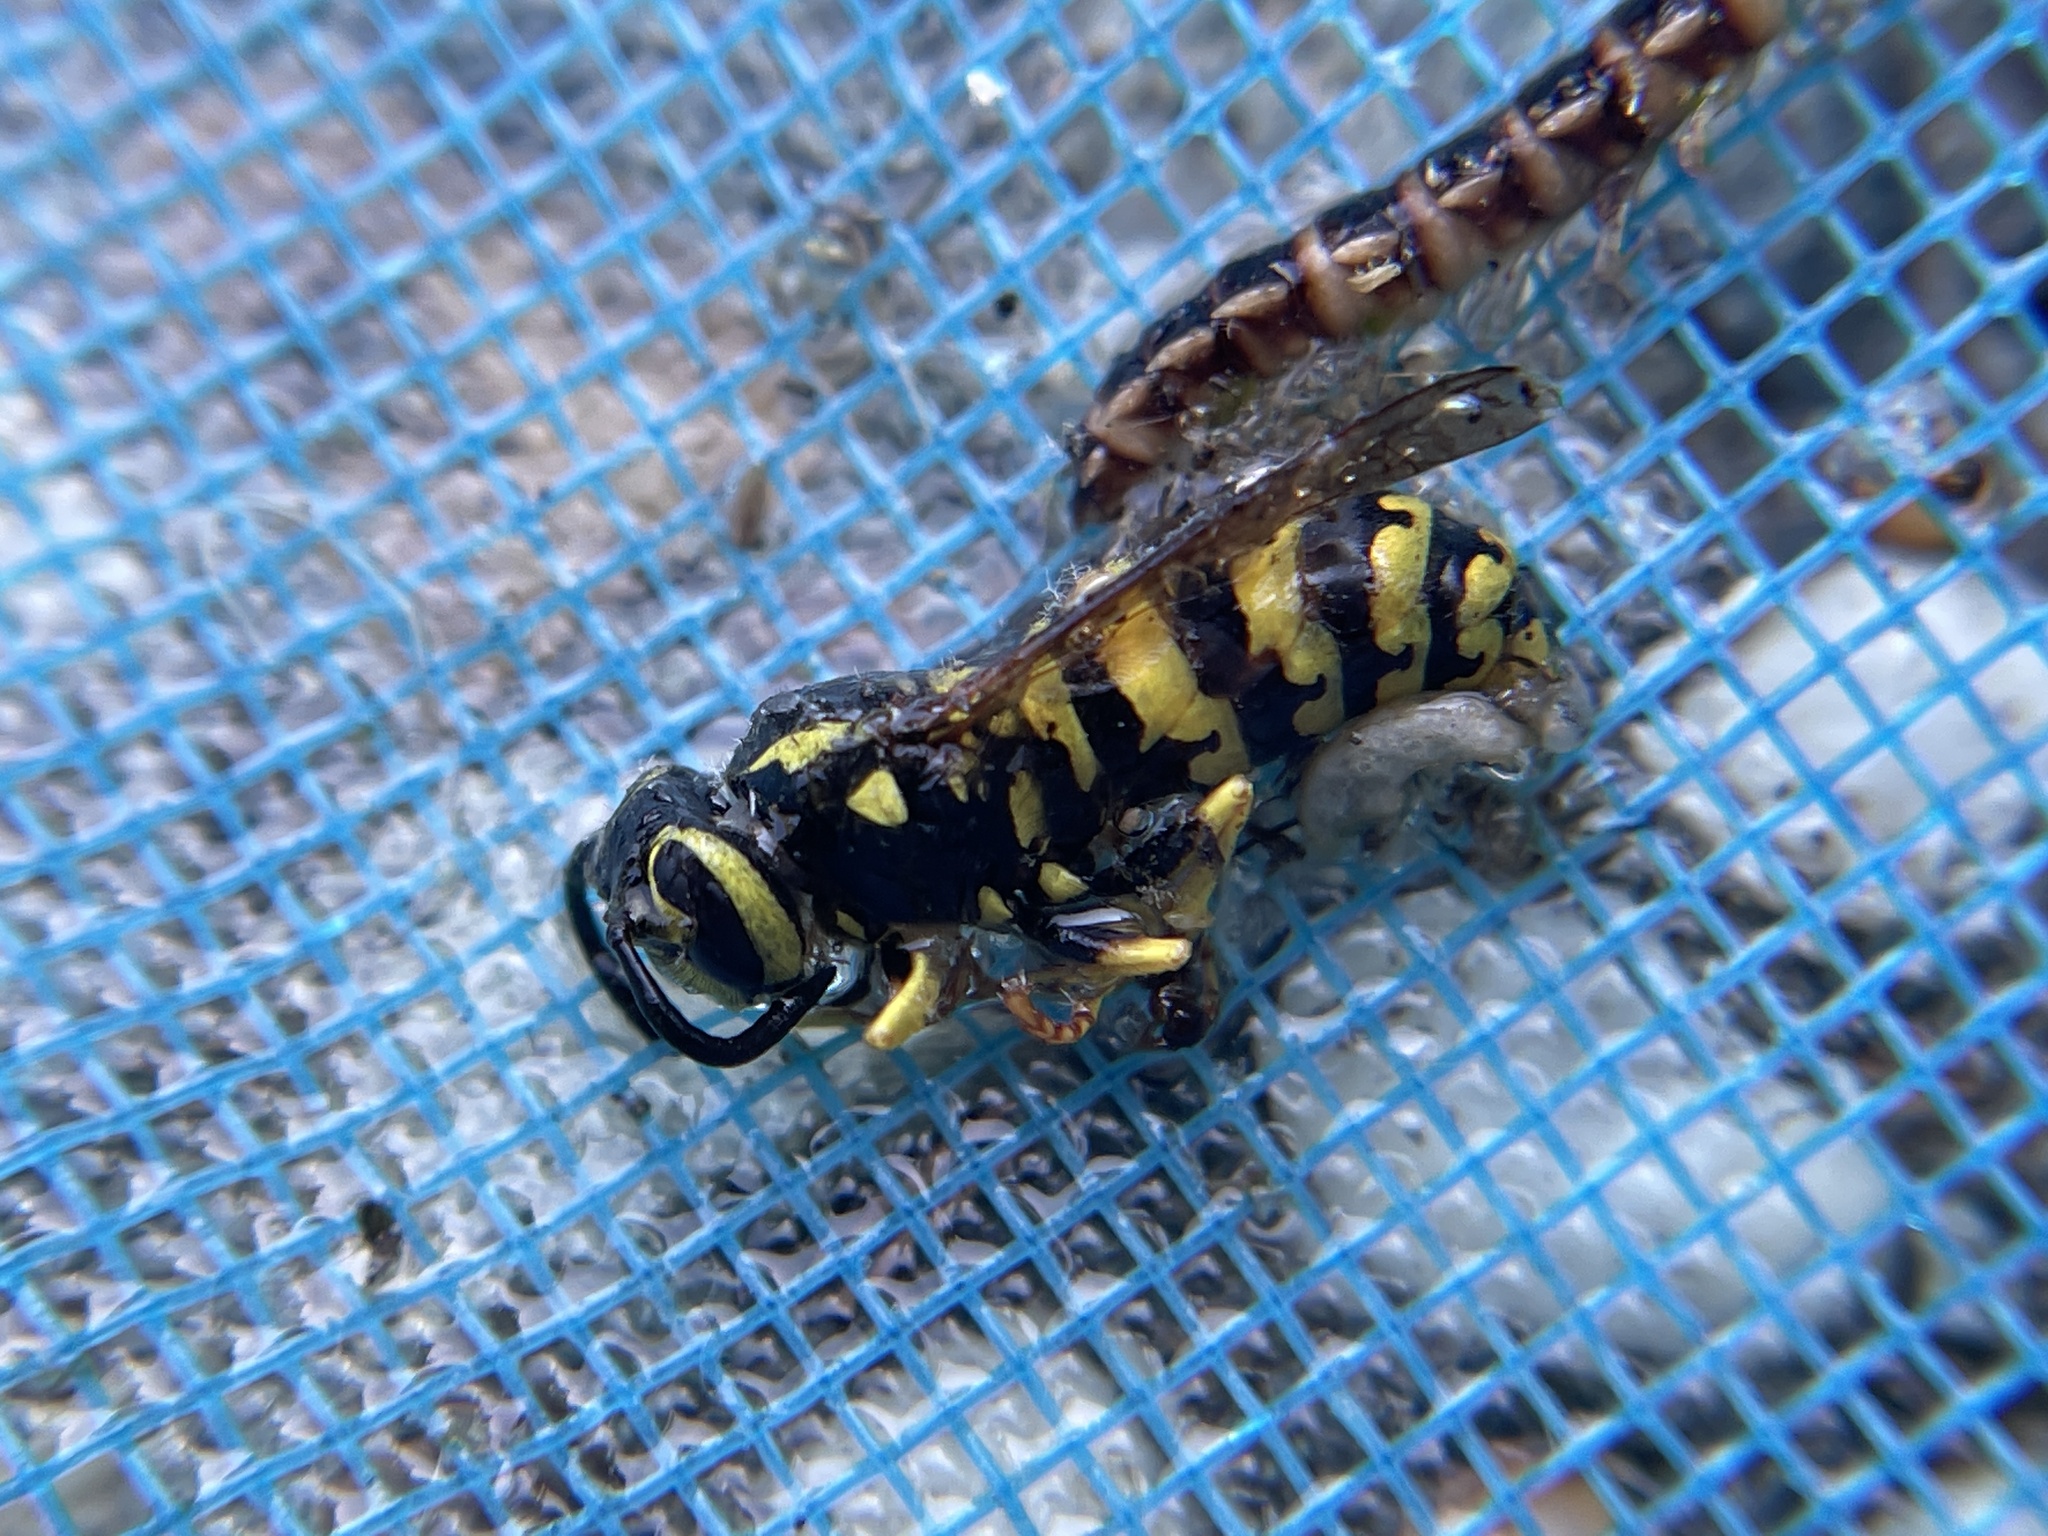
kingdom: Animalia
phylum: Arthropoda
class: Insecta
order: Hymenoptera
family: Vespidae
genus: Vespula
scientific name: Vespula pensylvanica
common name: Western yellowjacket
